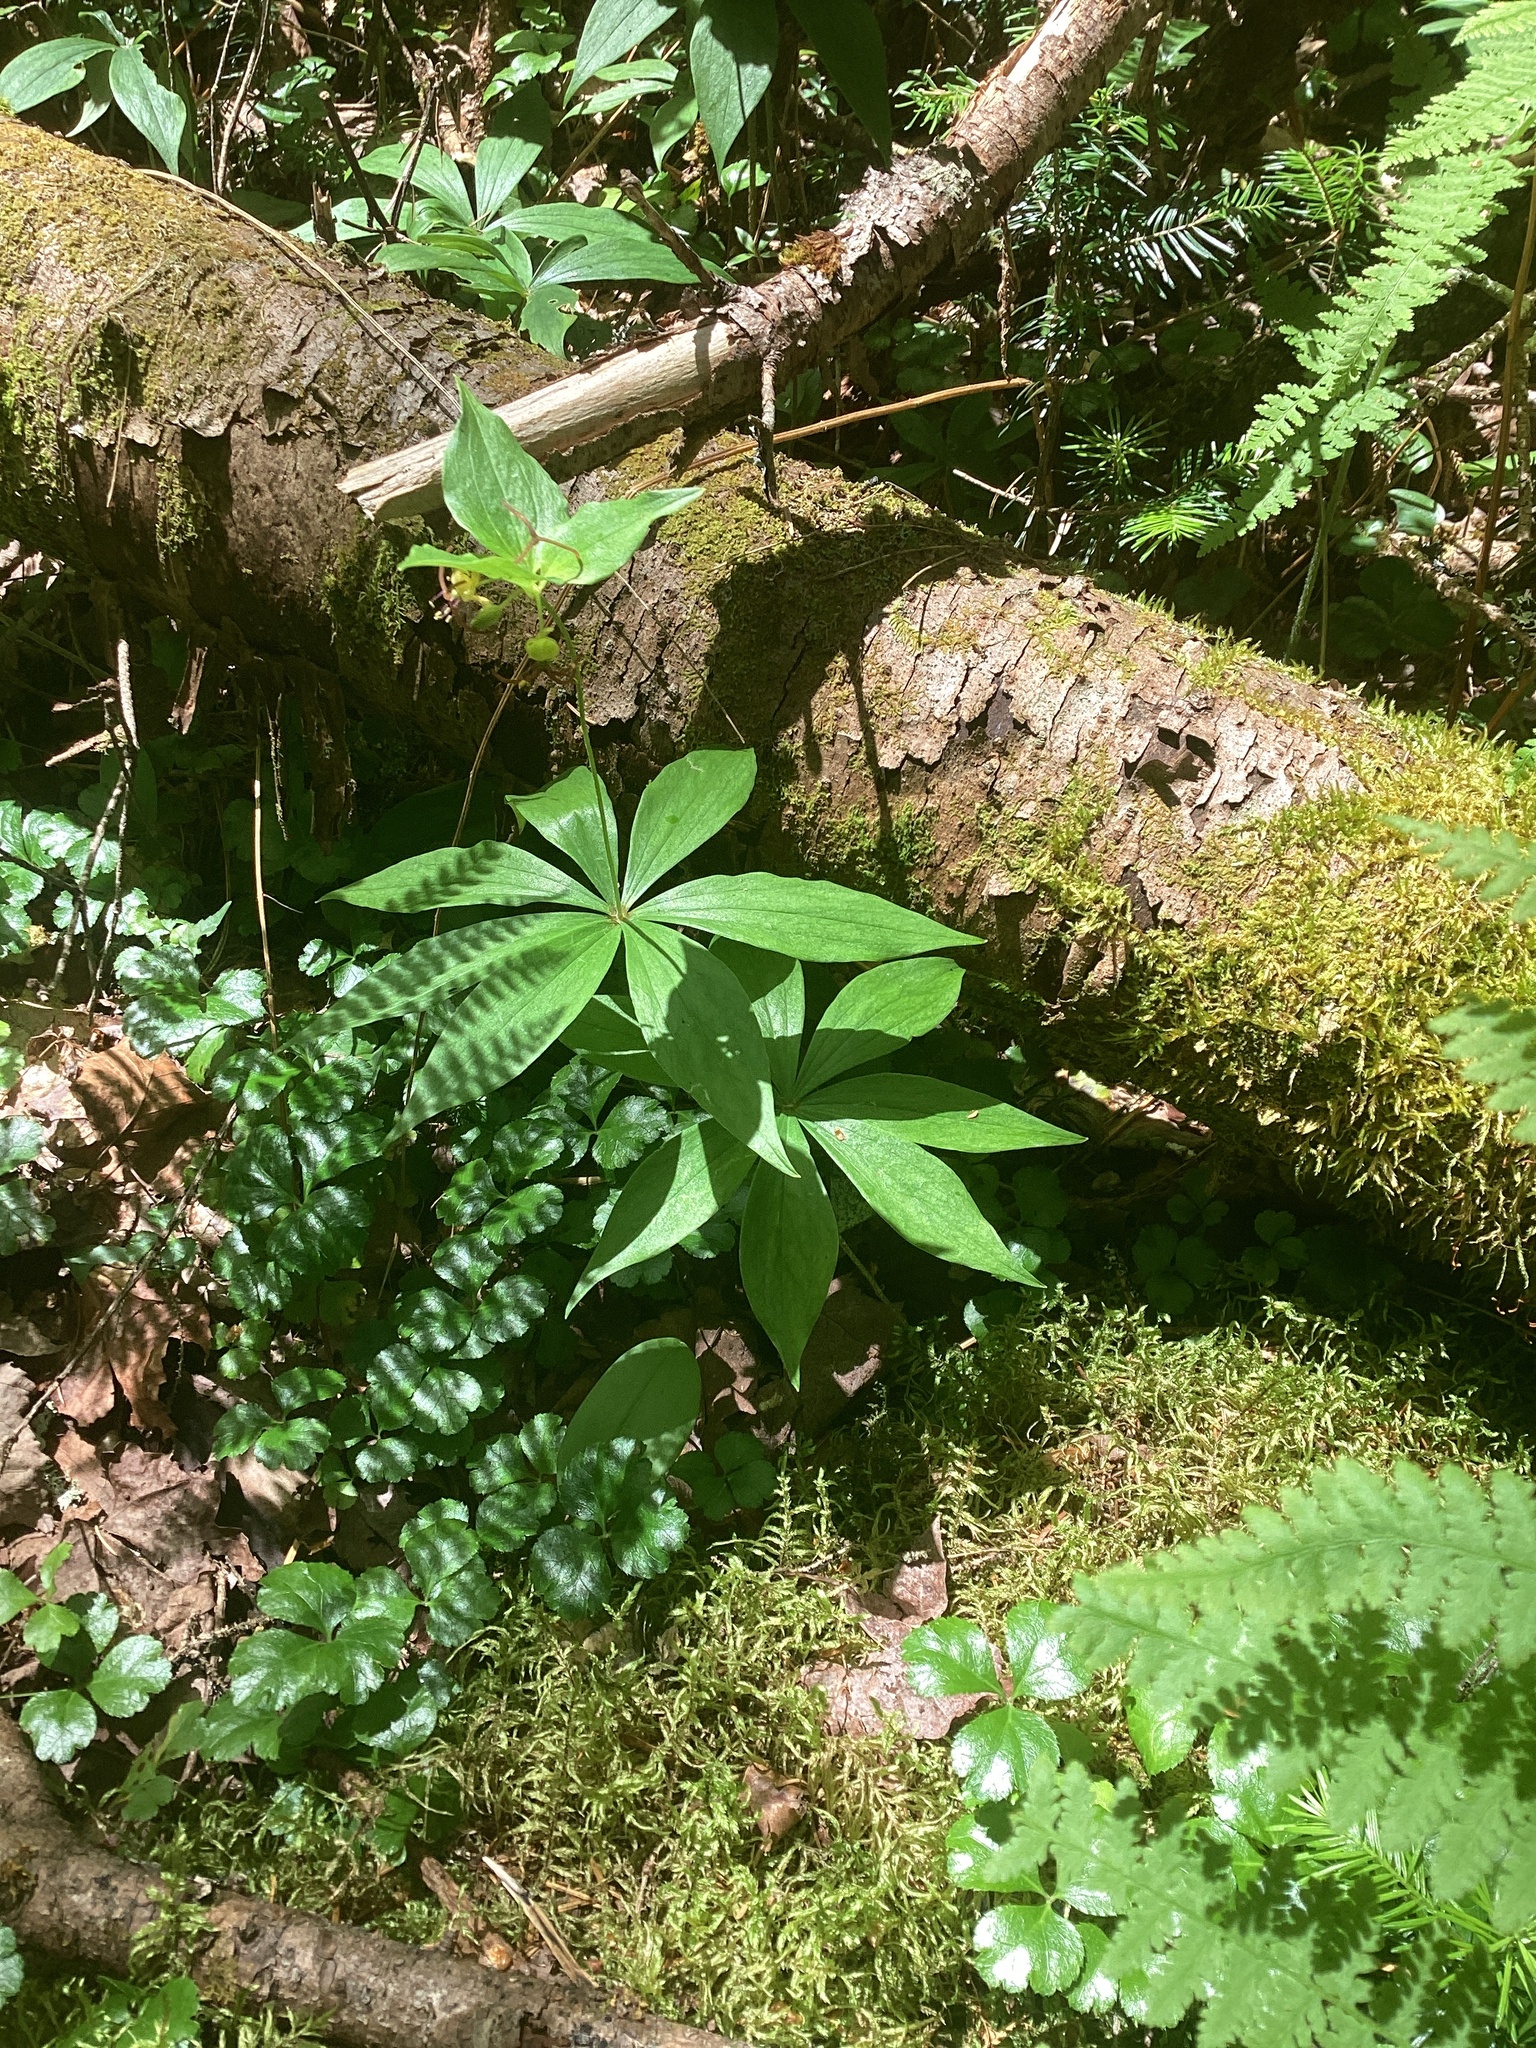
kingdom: Plantae
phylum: Tracheophyta
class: Liliopsida
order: Liliales
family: Liliaceae
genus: Medeola
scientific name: Medeola virginiana
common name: Indian cucumber-root
